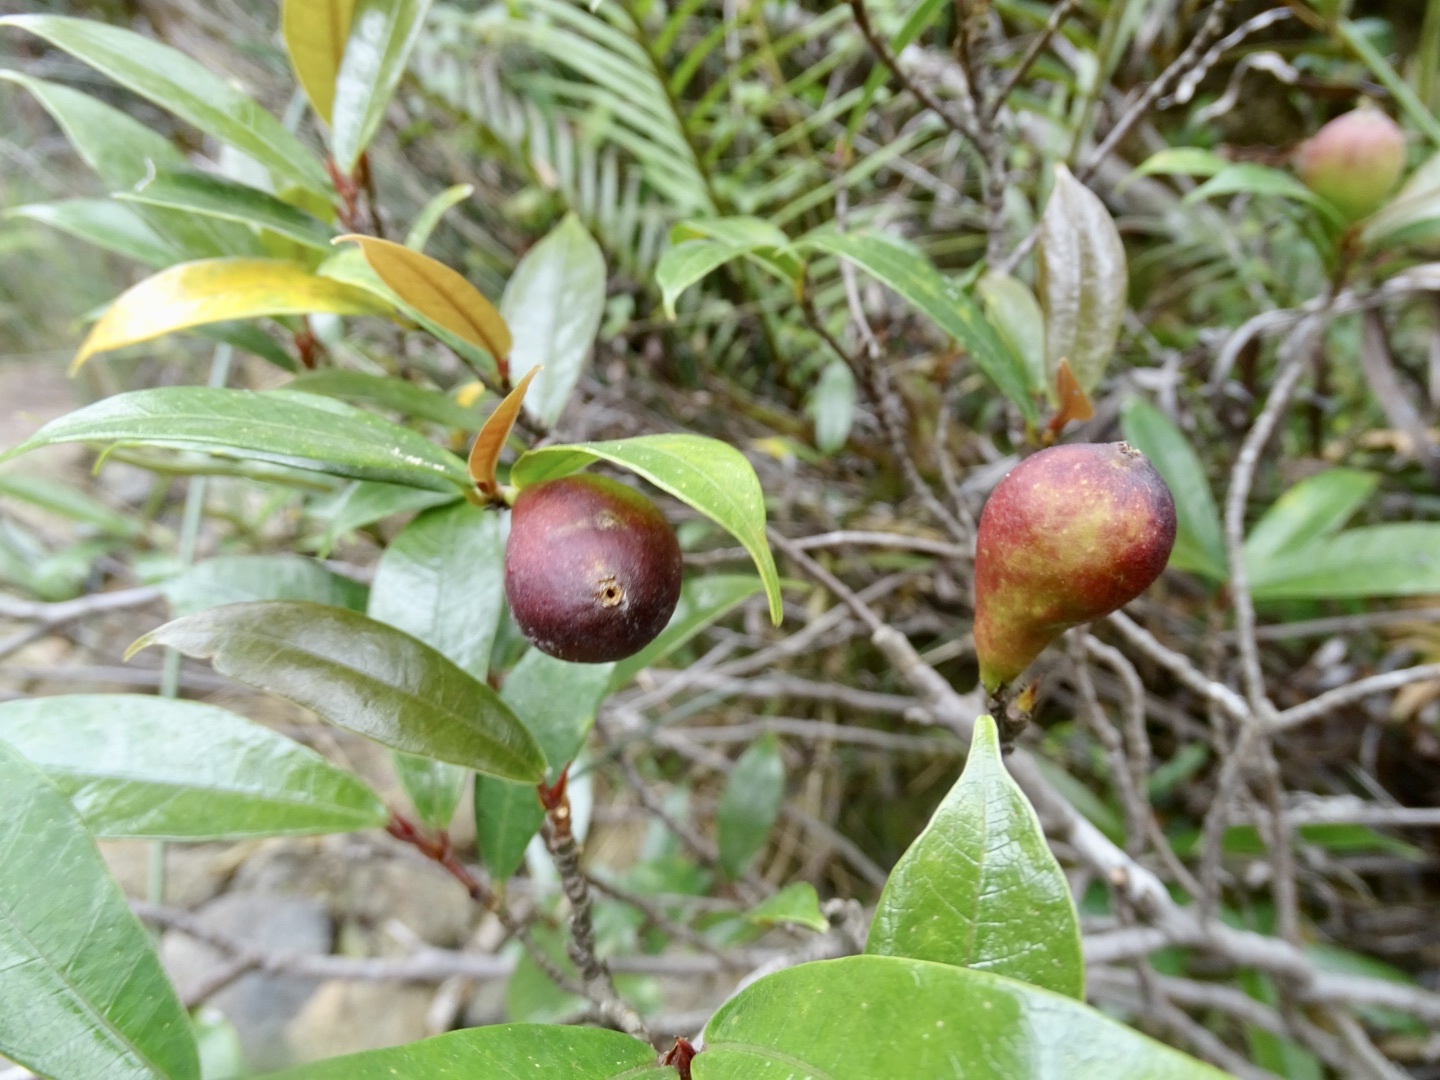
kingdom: Plantae
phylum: Tracheophyta
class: Magnoliopsida
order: Rosales
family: Moraceae
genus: Ficus
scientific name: Ficus pyriformis
